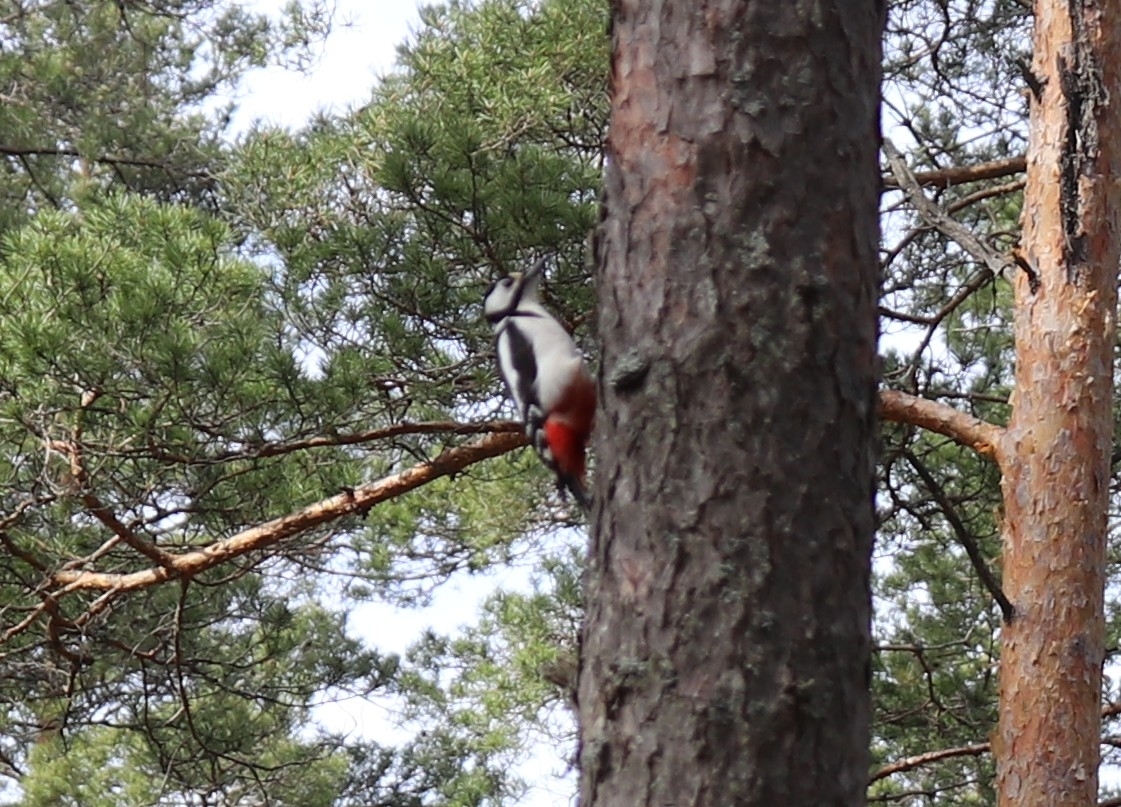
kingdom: Animalia
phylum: Chordata
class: Aves
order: Piciformes
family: Picidae
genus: Dendrocopos
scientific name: Dendrocopos major
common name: Great spotted woodpecker
